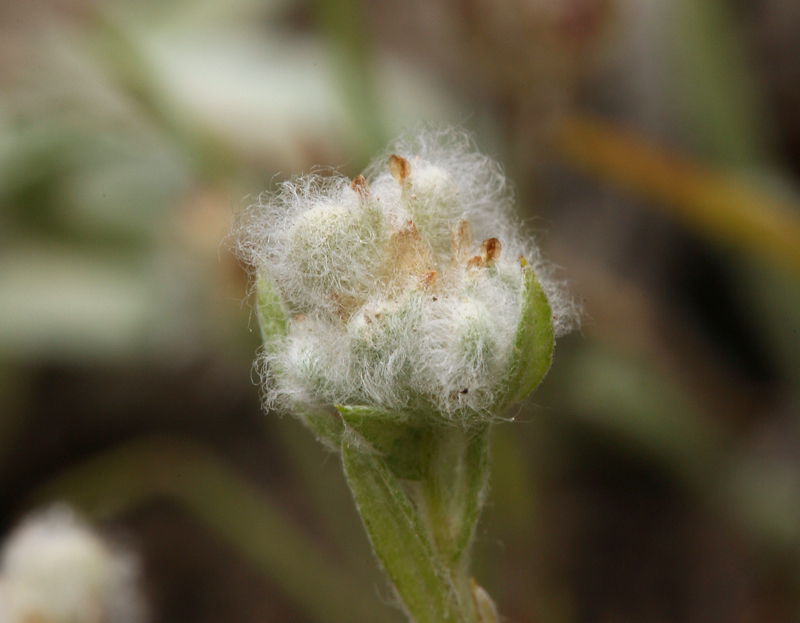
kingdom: Plantae
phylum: Tracheophyta
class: Magnoliopsida
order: Asterales
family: Asteraceae
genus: Bombycilaena
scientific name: Bombycilaena californica
